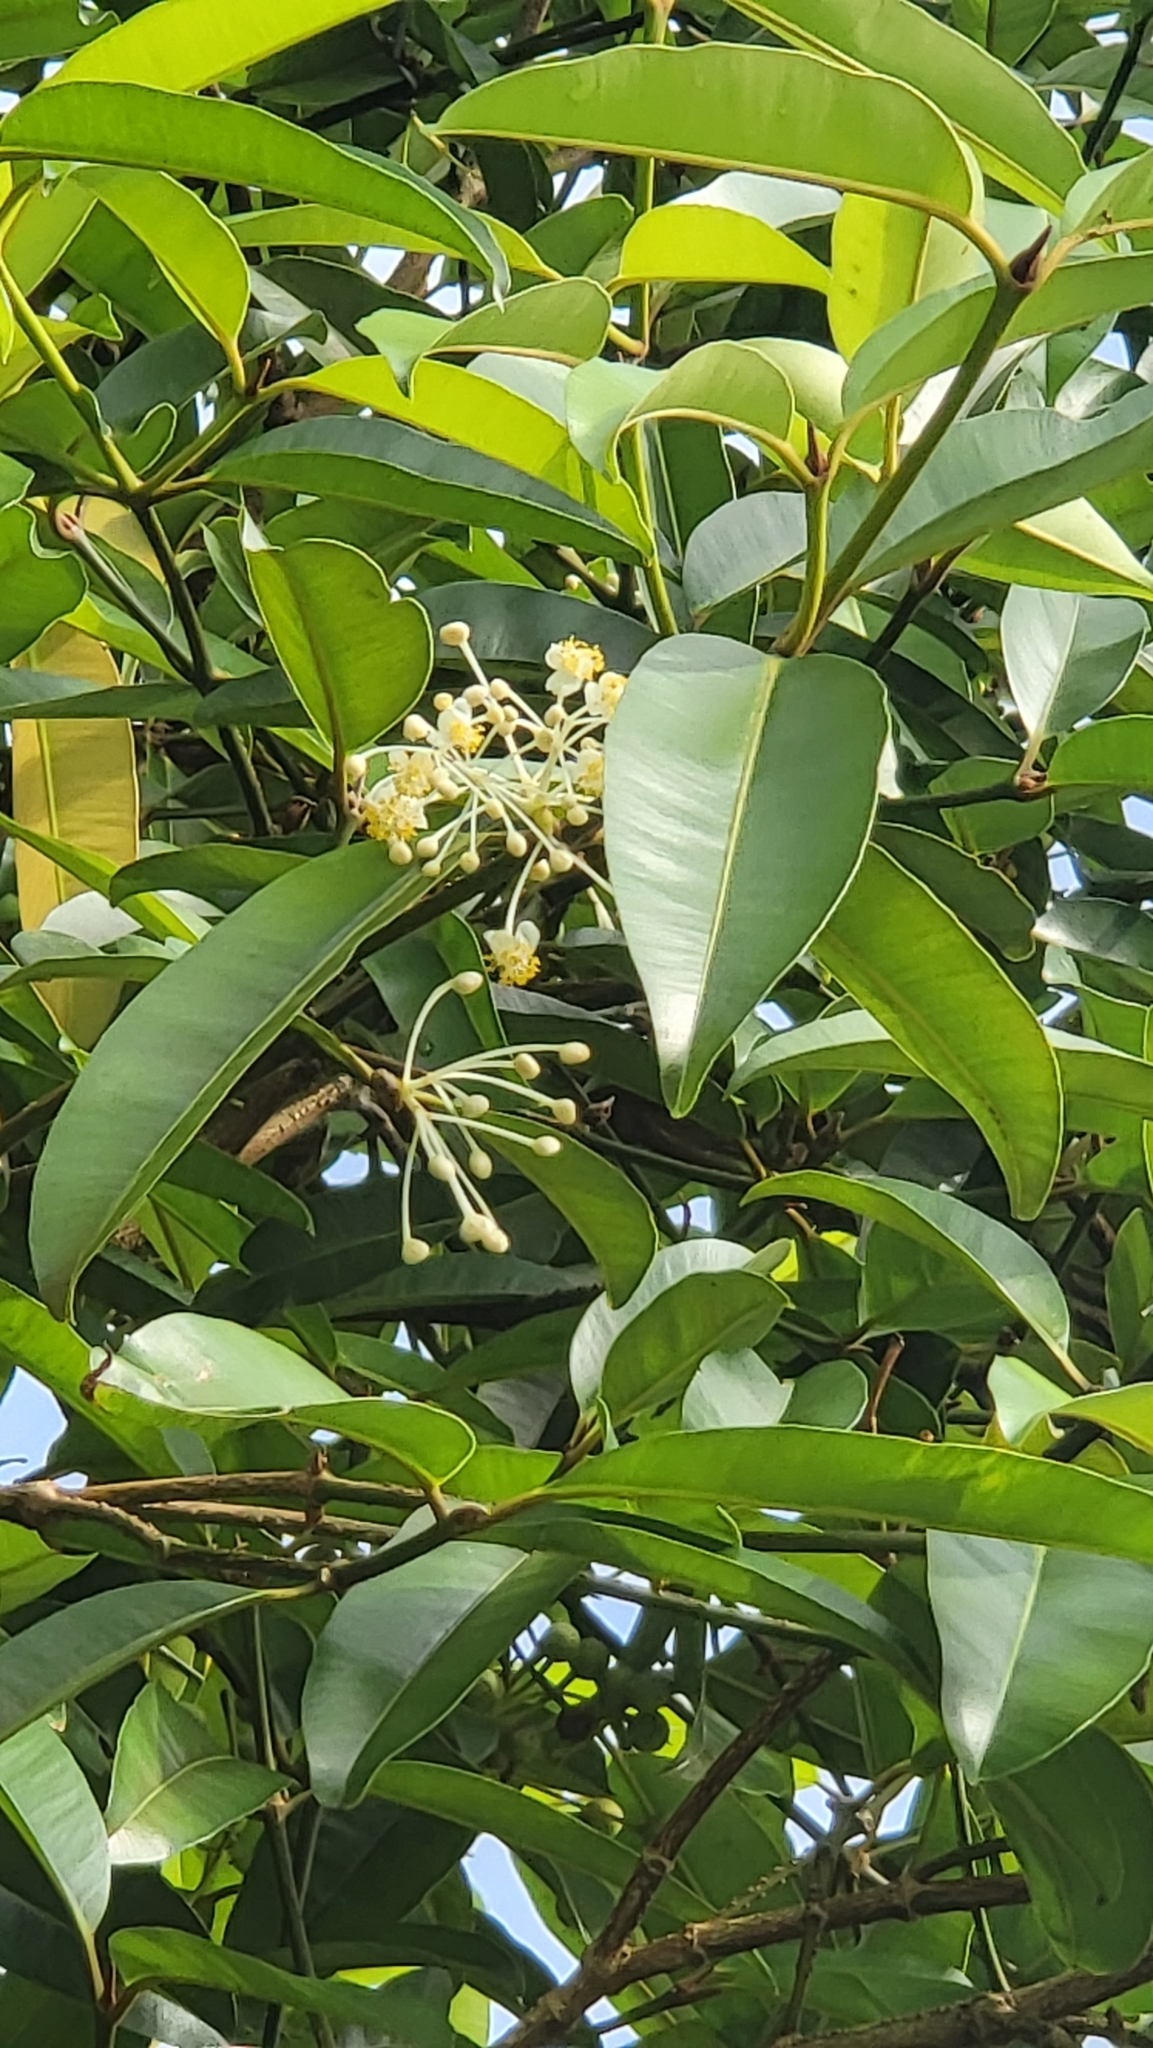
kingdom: Plantae
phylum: Tracheophyta
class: Magnoliopsida
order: Malpighiales
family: Calophyllaceae
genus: Calophyllum
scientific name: Calophyllum soulattri
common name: Bitangoor boonot
